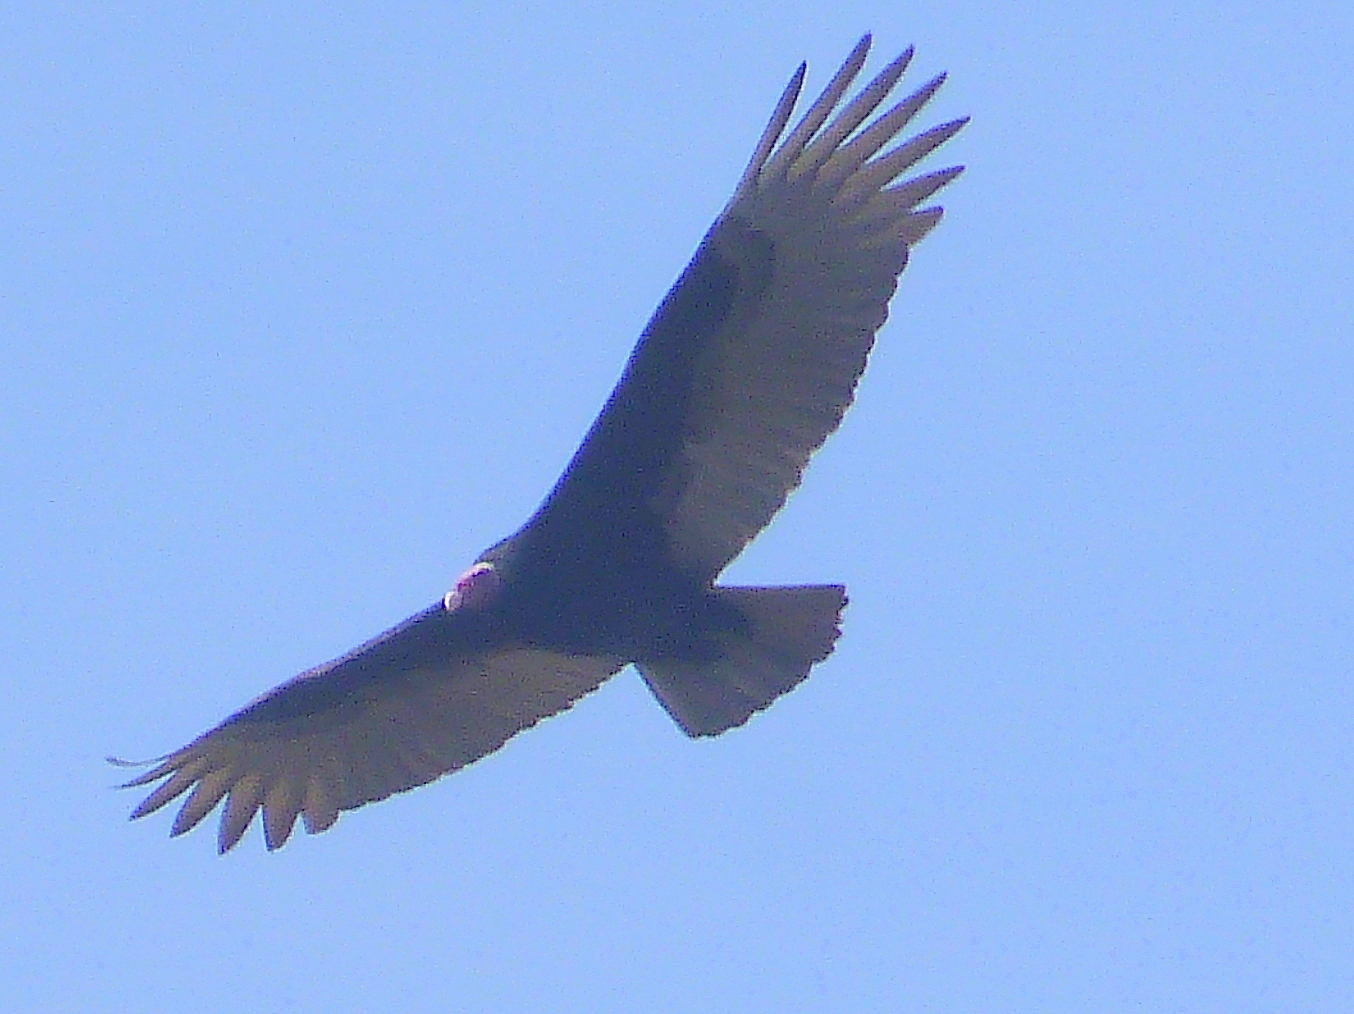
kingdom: Animalia
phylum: Chordata
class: Aves
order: Accipitriformes
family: Cathartidae
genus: Cathartes
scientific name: Cathartes aura
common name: Turkey vulture
